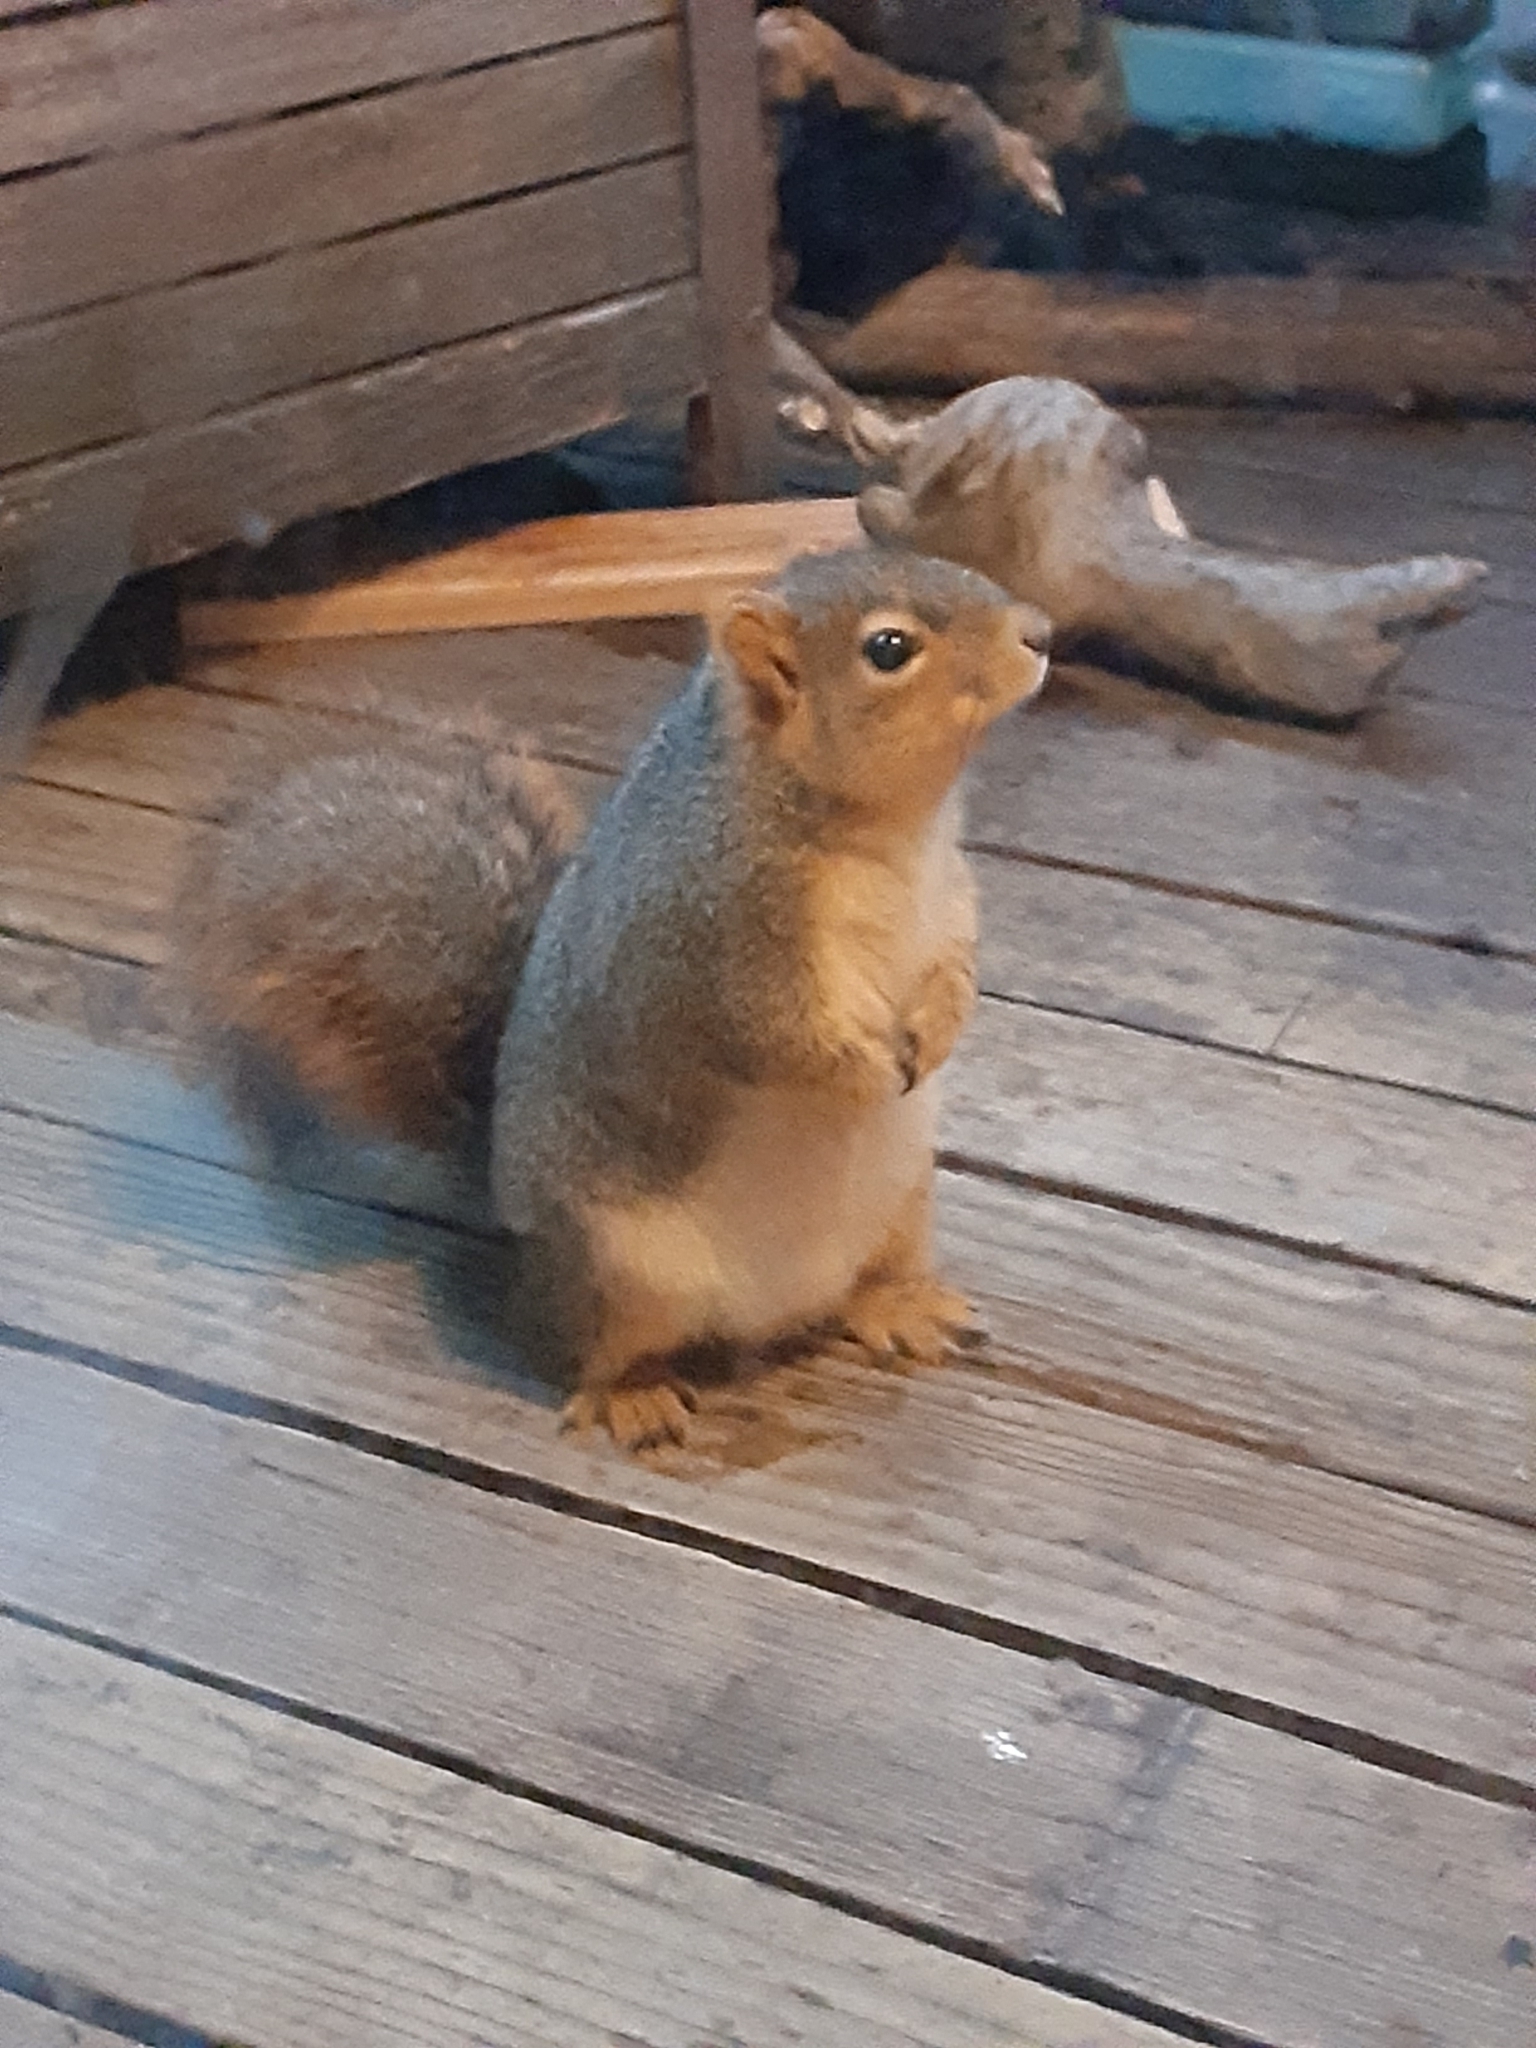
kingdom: Animalia
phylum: Chordata
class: Mammalia
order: Rodentia
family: Sciuridae
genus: Sciurus
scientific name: Sciurus niger
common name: Fox squirrel
